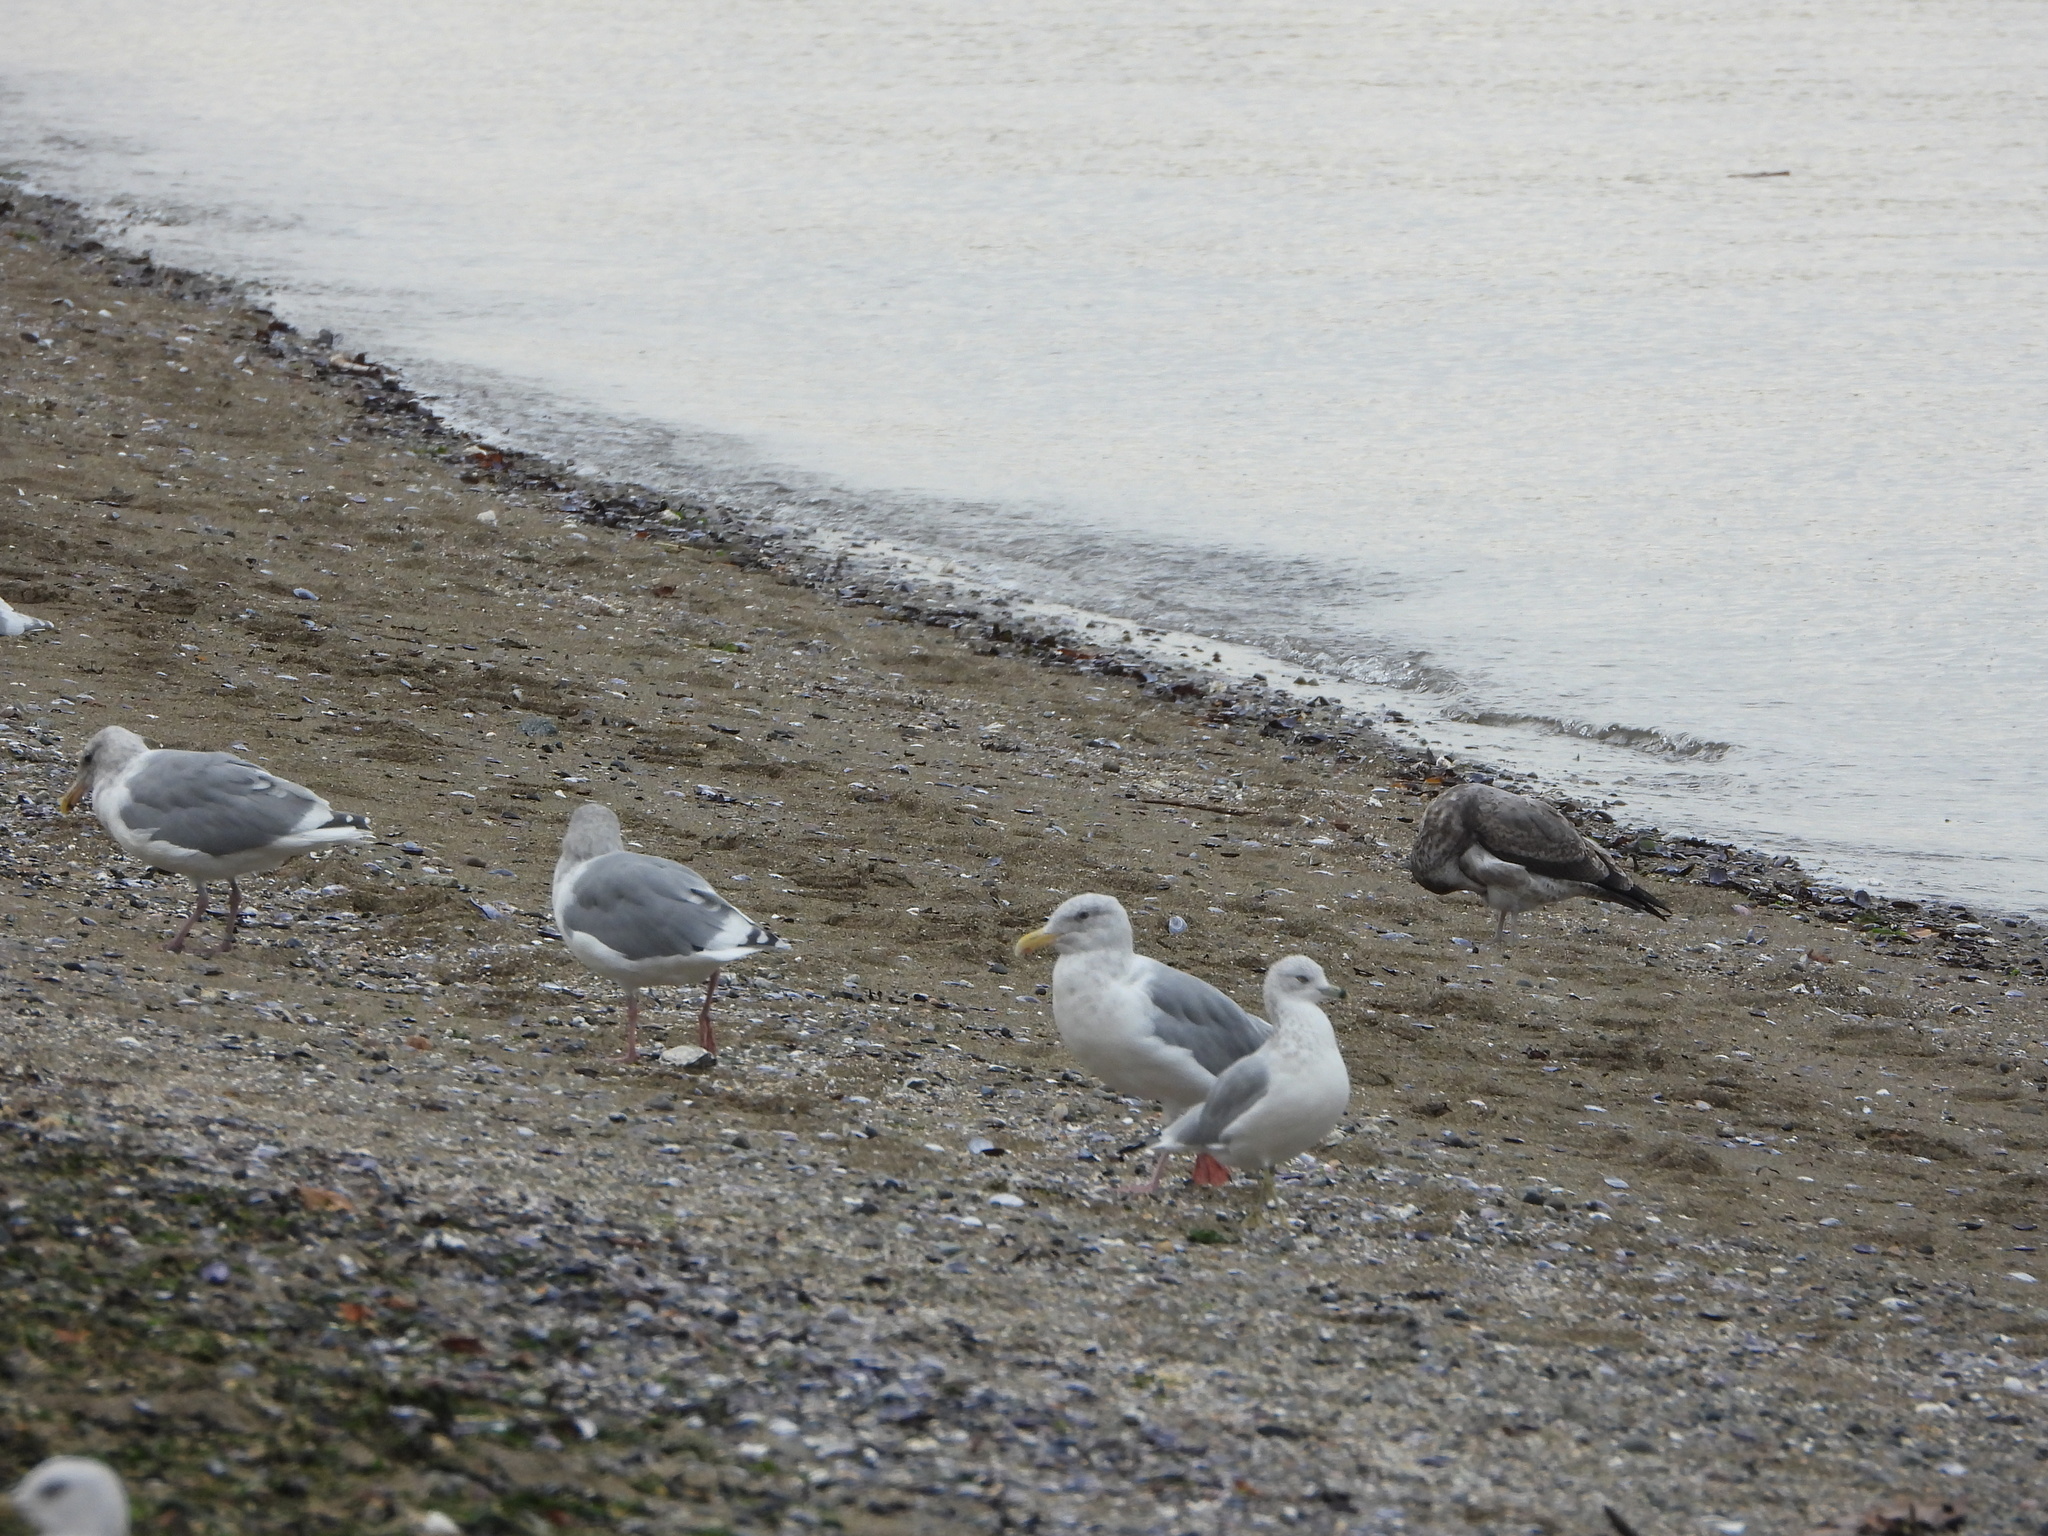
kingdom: Animalia
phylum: Chordata
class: Aves
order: Charadriiformes
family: Laridae
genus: Larus
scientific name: Larus delawarensis
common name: Ring-billed gull
